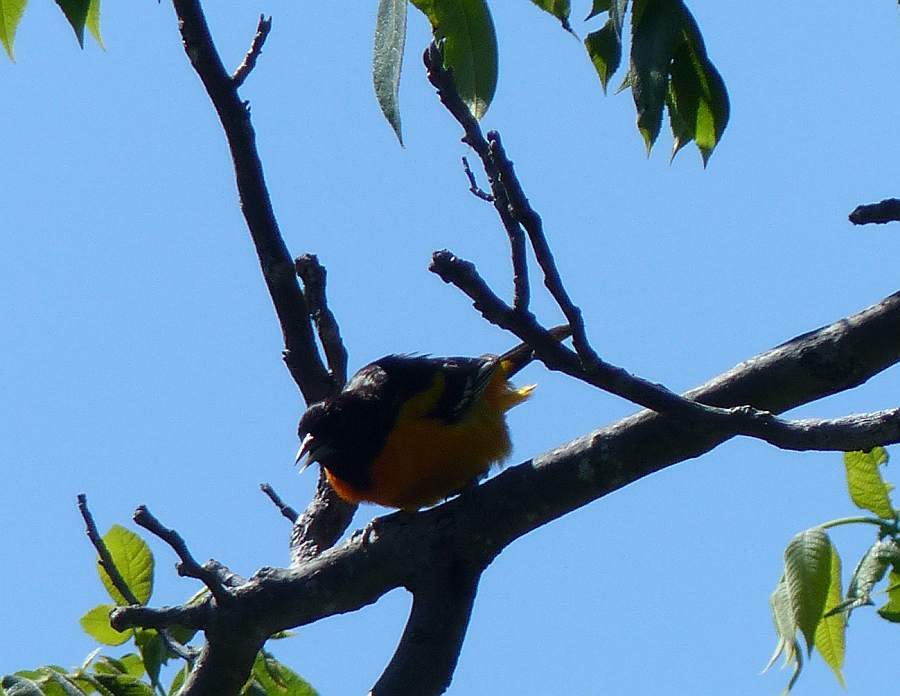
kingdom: Animalia
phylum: Chordata
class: Aves
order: Passeriformes
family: Icteridae
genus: Icterus
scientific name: Icterus galbula
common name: Baltimore oriole
